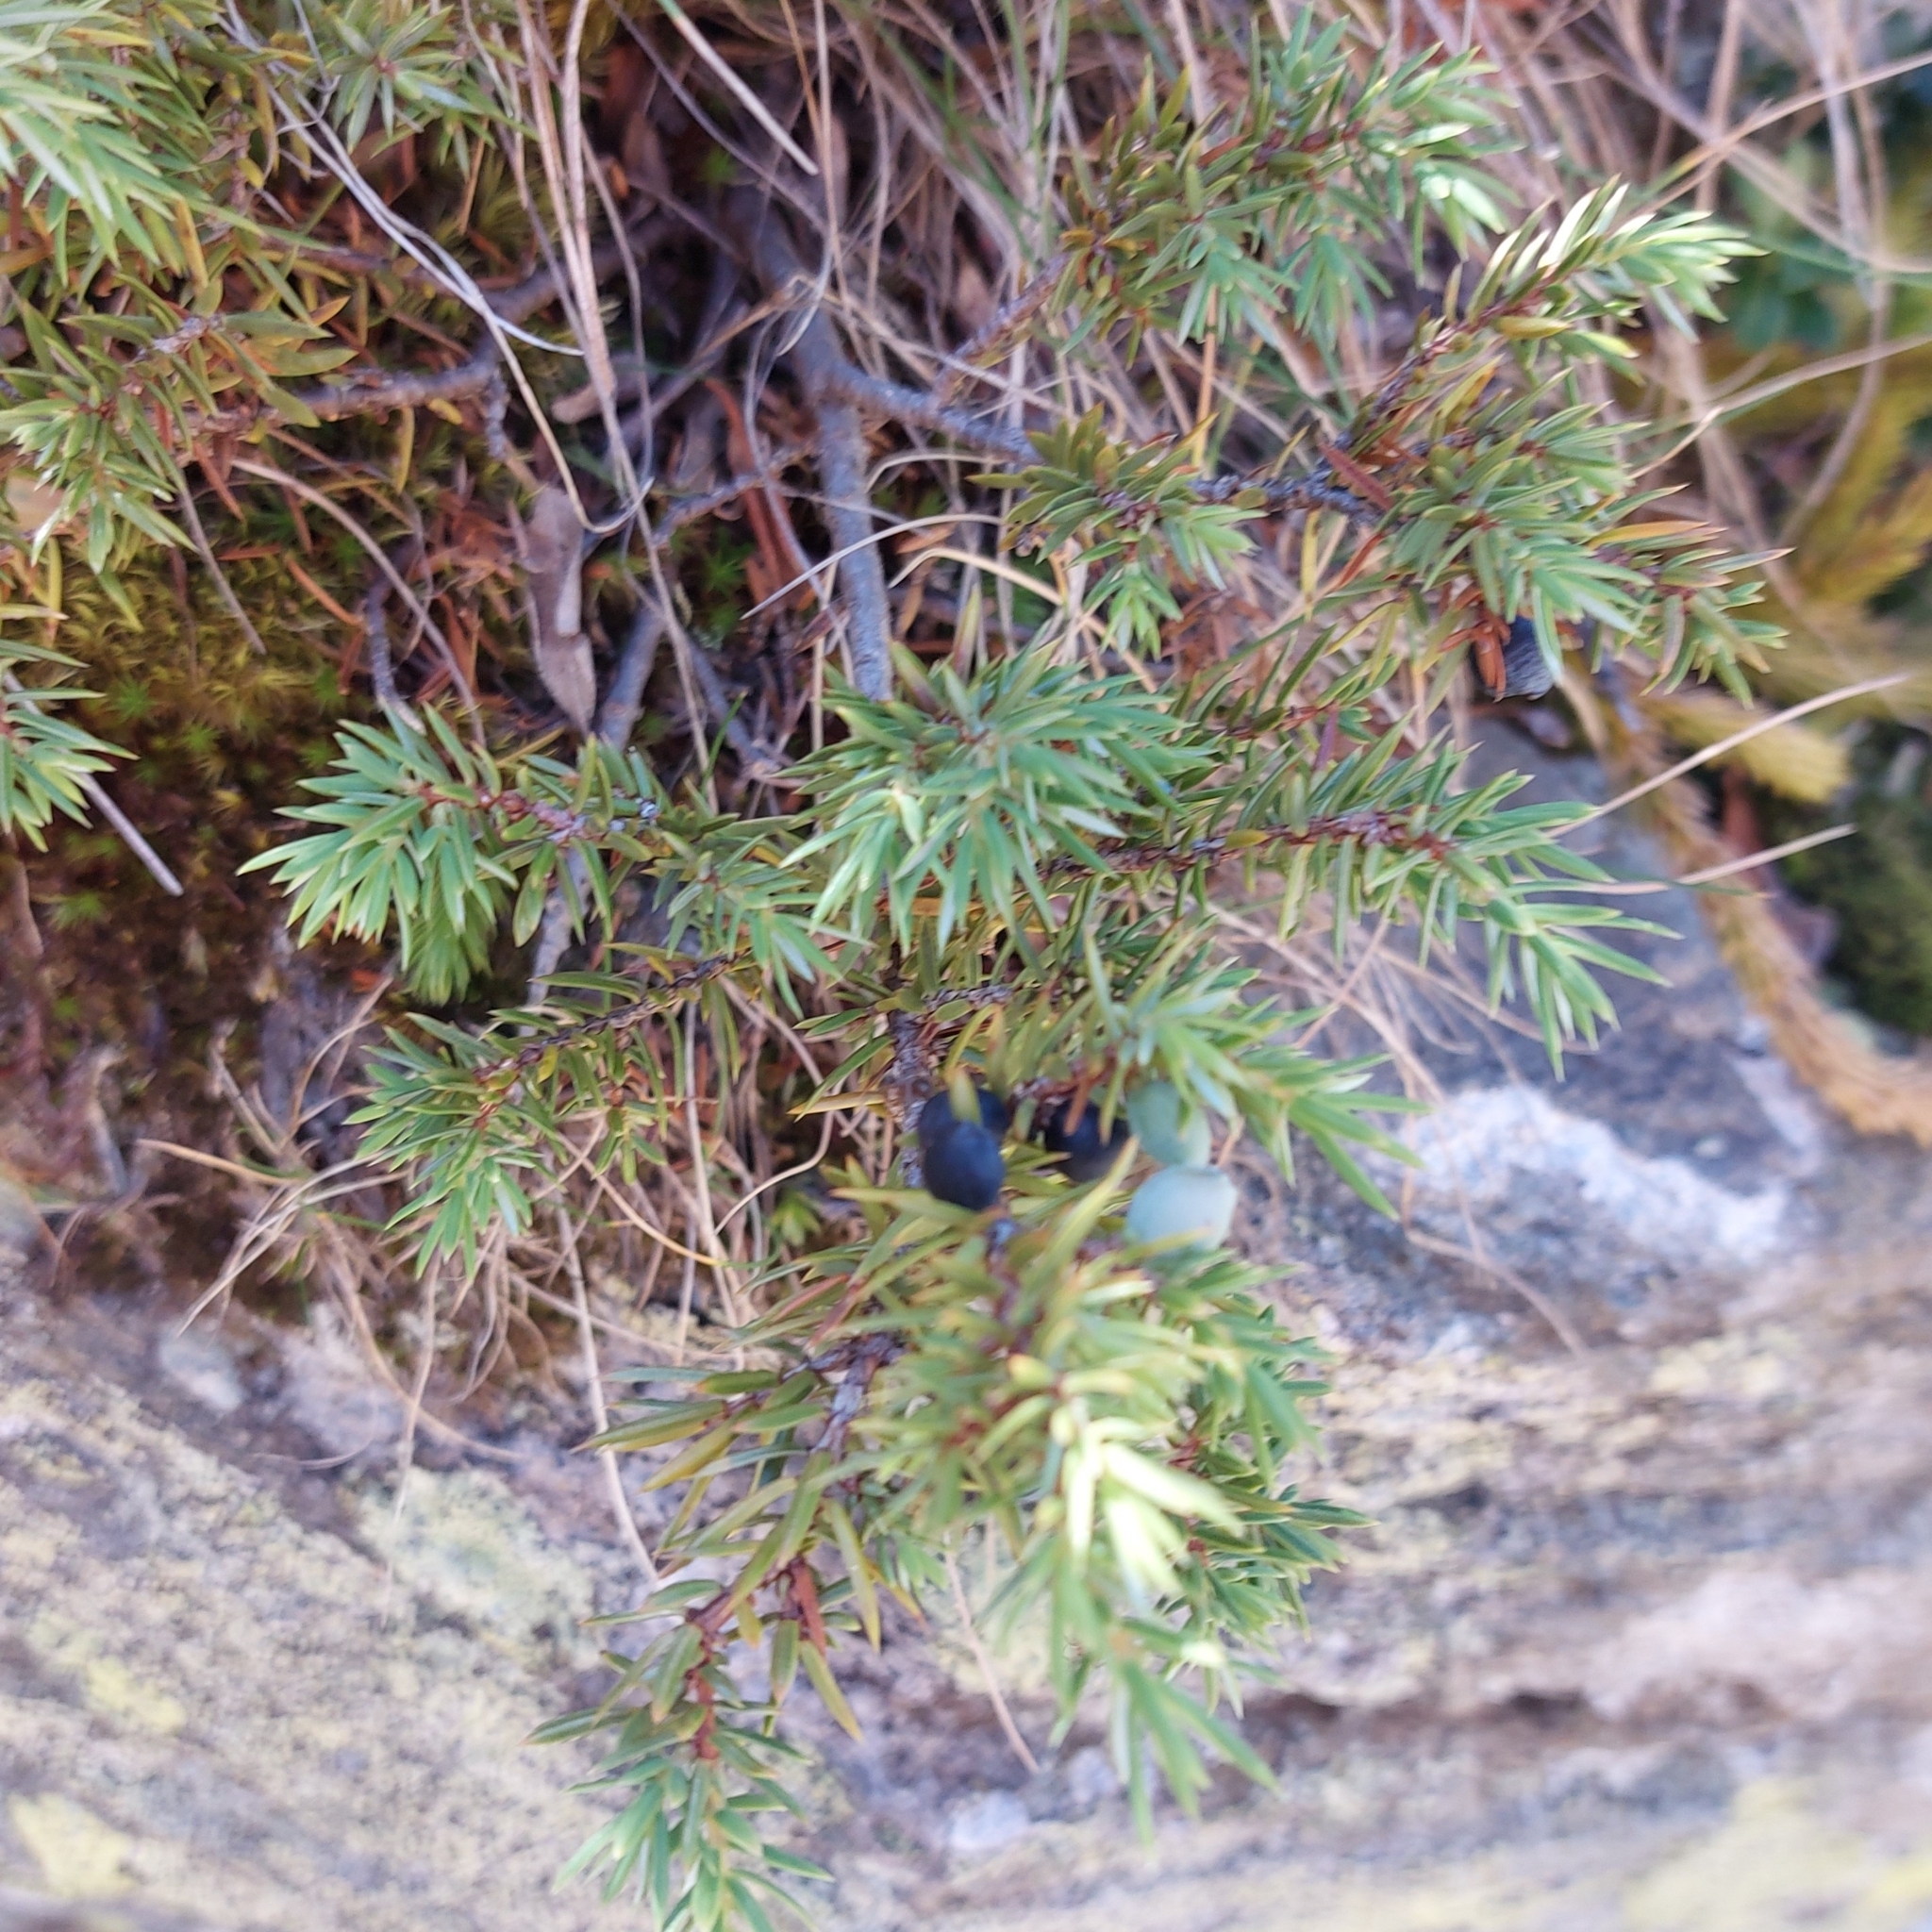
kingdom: Plantae
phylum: Tracheophyta
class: Pinopsida
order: Pinales
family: Cupressaceae
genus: Juniperus
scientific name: Juniperus communis
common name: Common juniper
